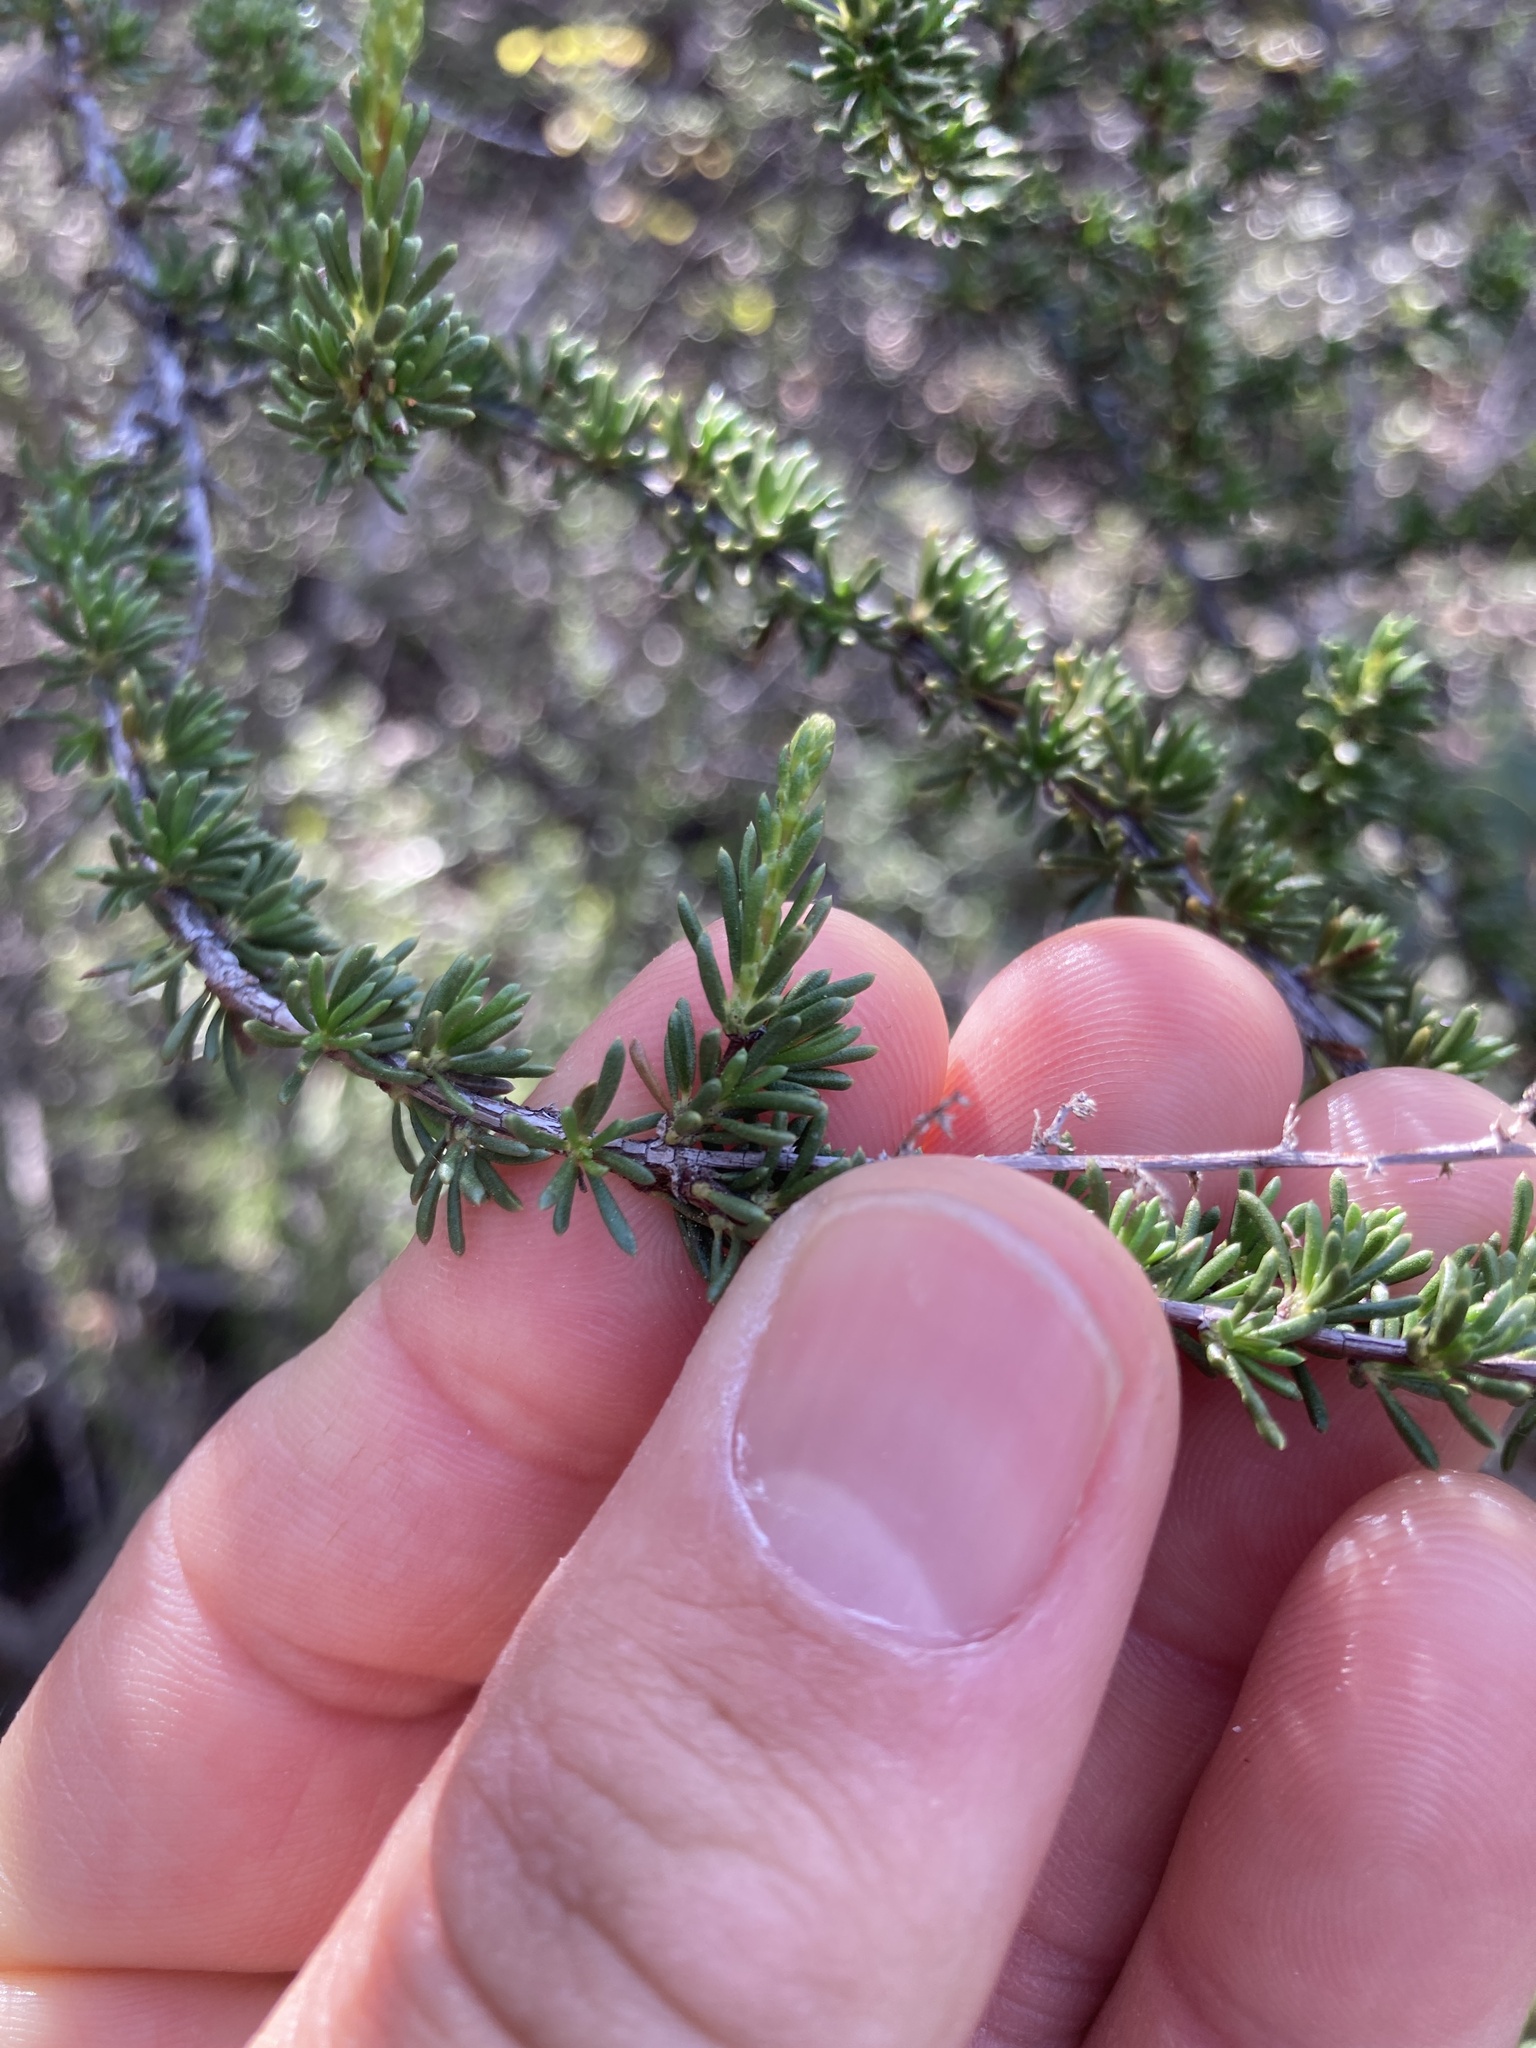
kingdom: Plantae
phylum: Tracheophyta
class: Magnoliopsida
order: Rosales
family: Rosaceae
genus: Adenostoma
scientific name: Adenostoma fasciculatum
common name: Chamise
